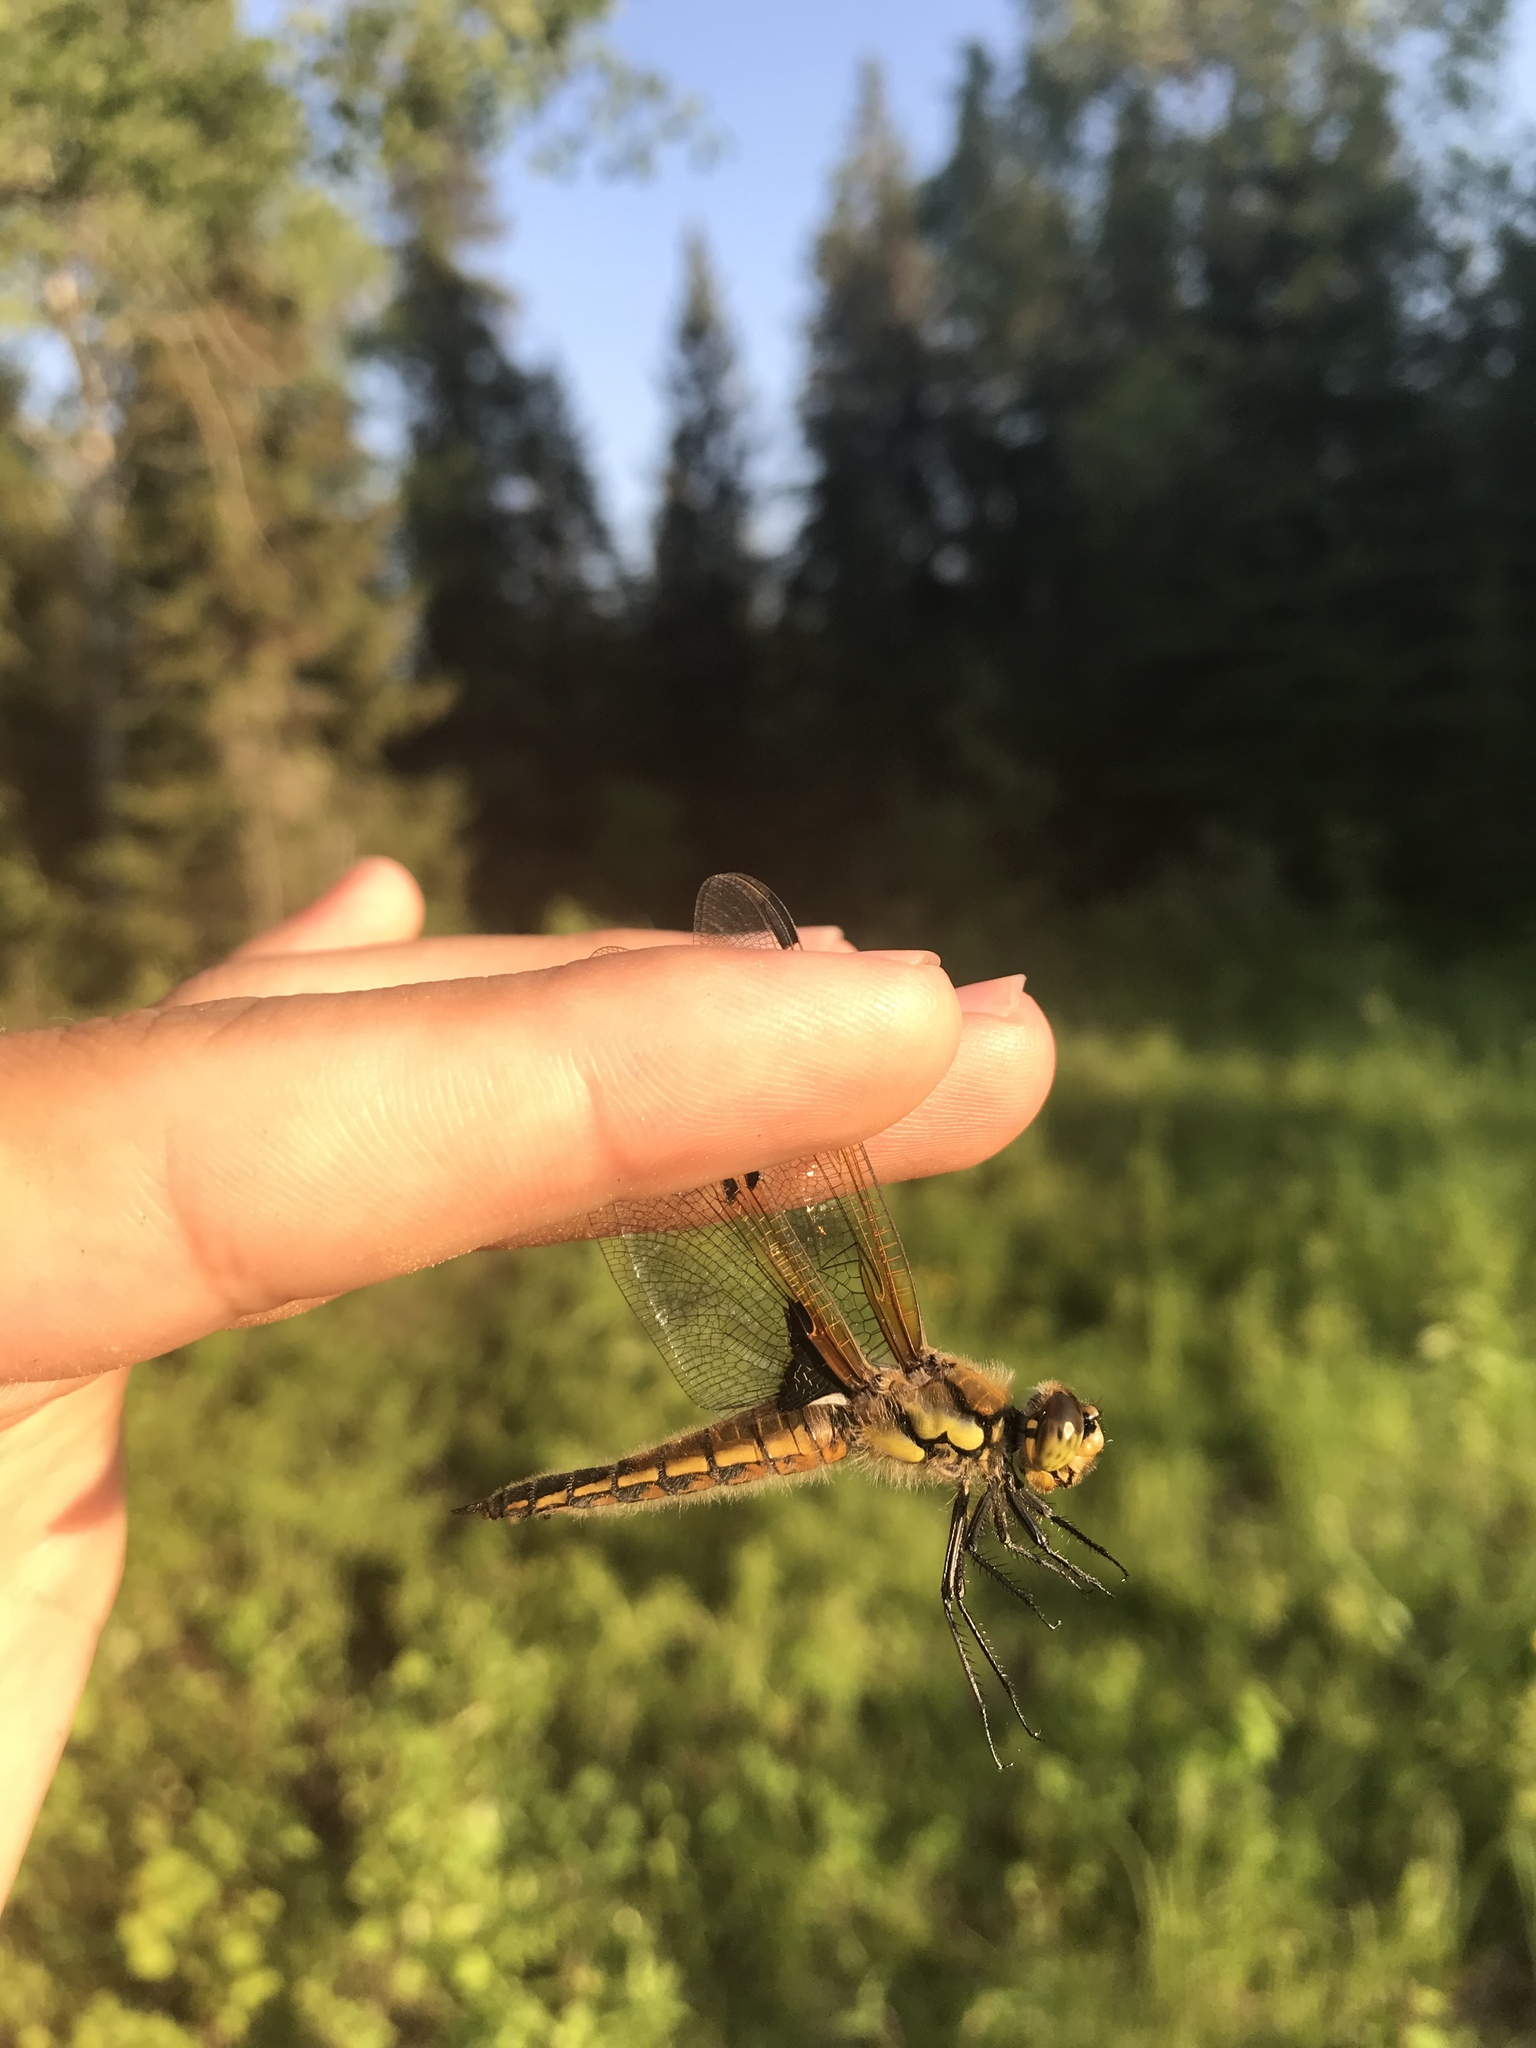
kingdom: Animalia
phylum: Arthropoda
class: Insecta
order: Odonata
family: Libellulidae
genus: Libellula
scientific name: Libellula quadrimaculata
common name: Four-spotted chaser
